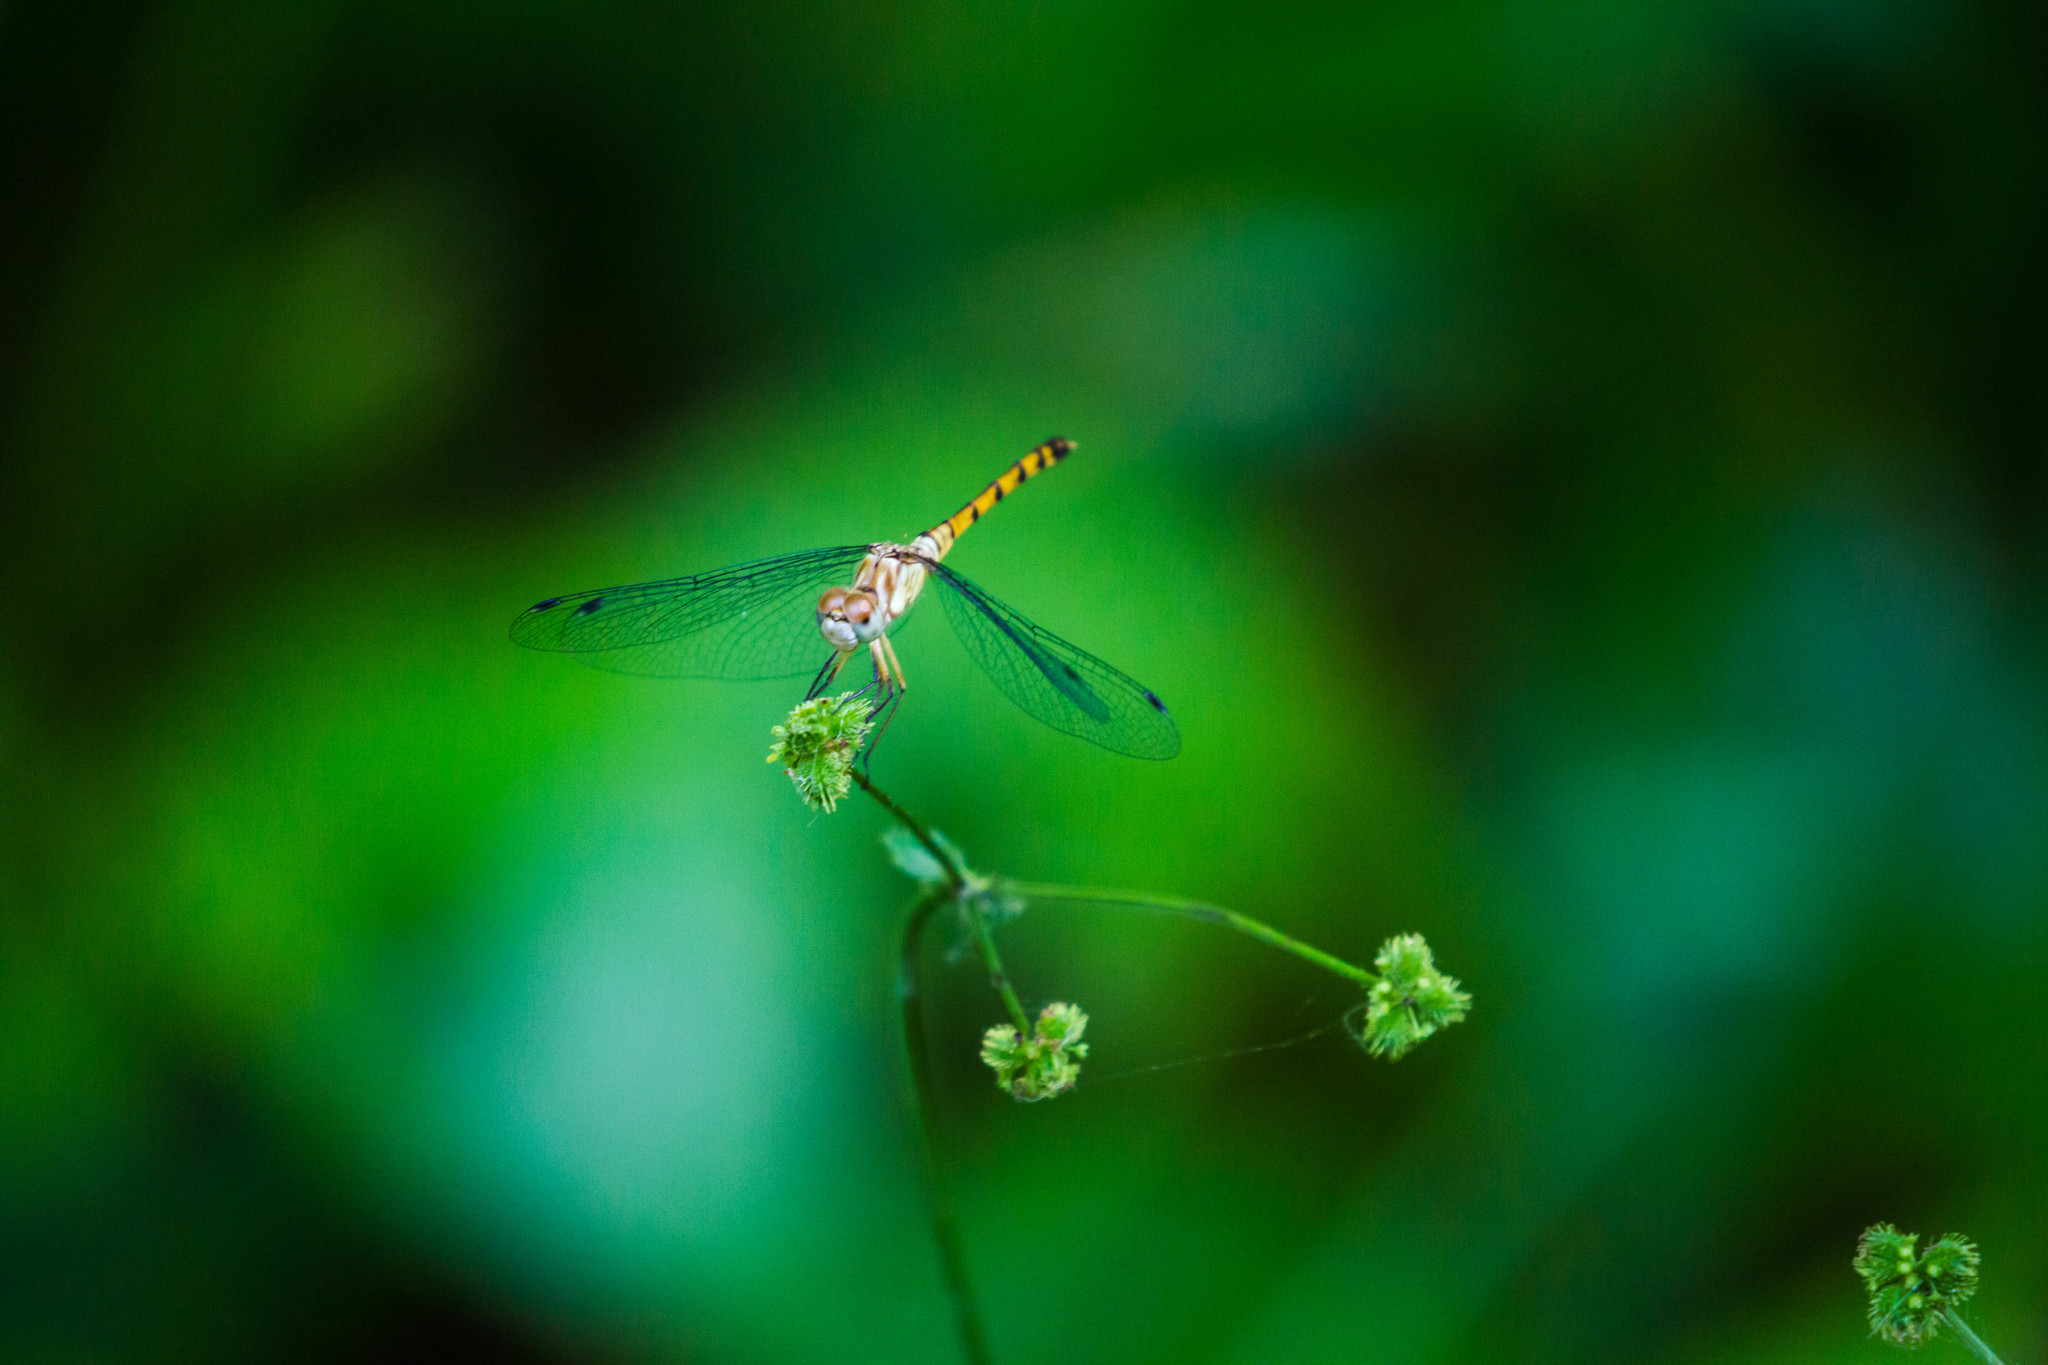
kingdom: Animalia
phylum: Arthropoda
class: Insecta
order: Odonata
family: Libellulidae
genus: Sympetrum
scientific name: Sympetrum ambiguum
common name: Blue-faced meadowhawk
